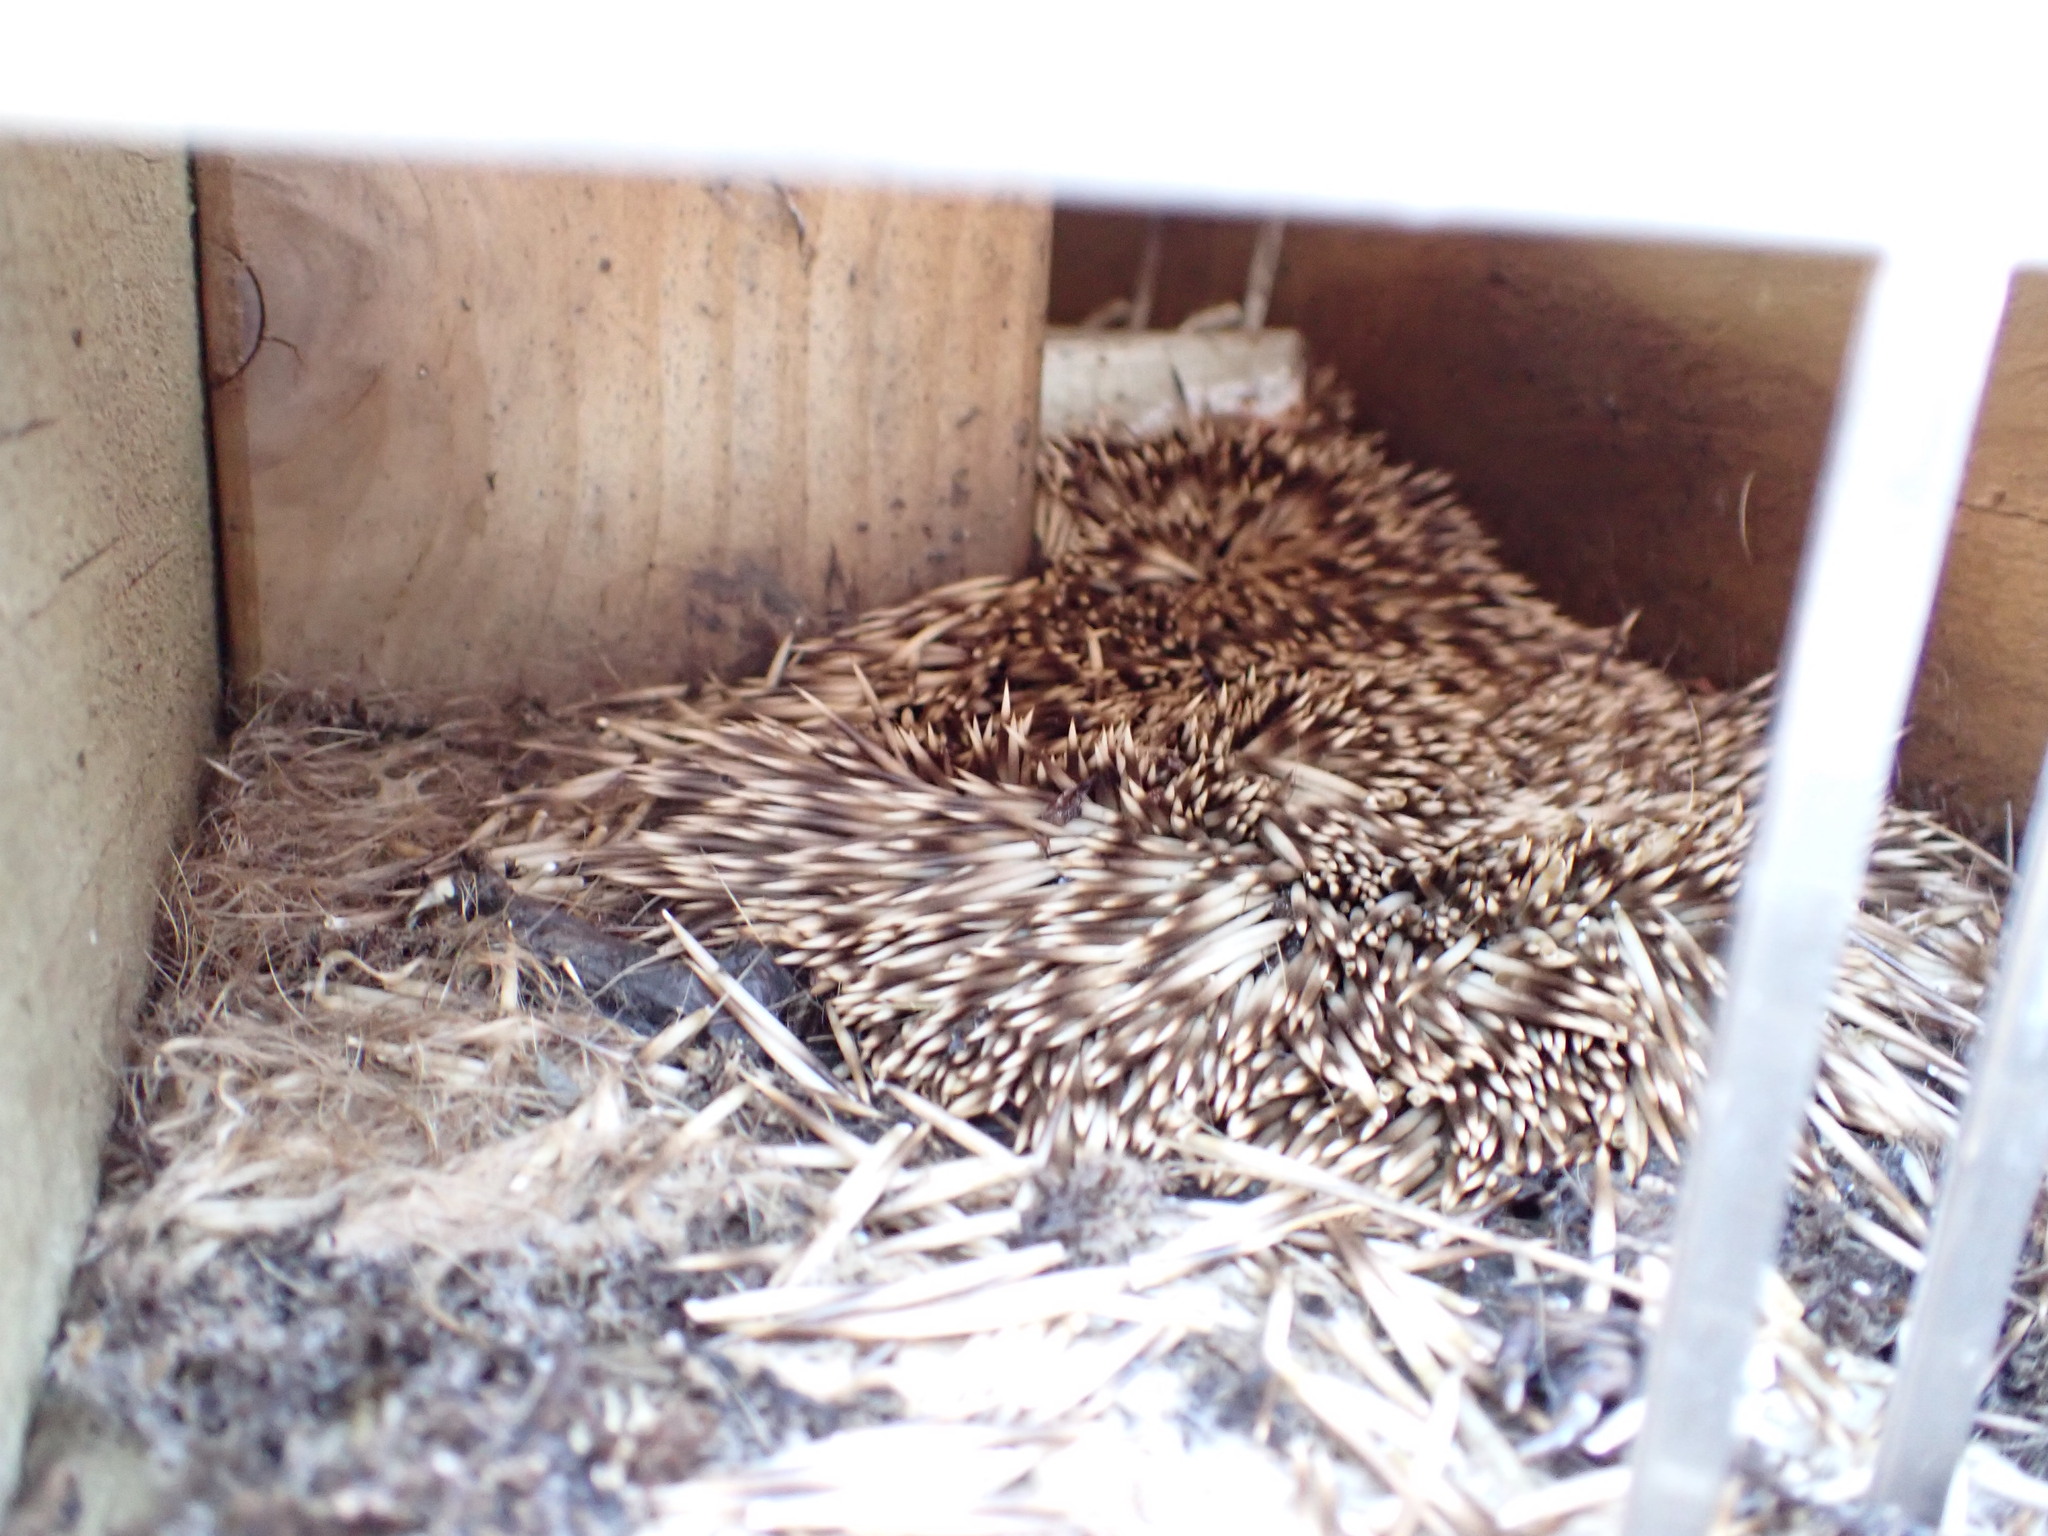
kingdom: Animalia
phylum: Chordata
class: Mammalia
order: Erinaceomorpha
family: Erinaceidae
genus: Erinaceus
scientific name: Erinaceus europaeus
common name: West european hedgehog
